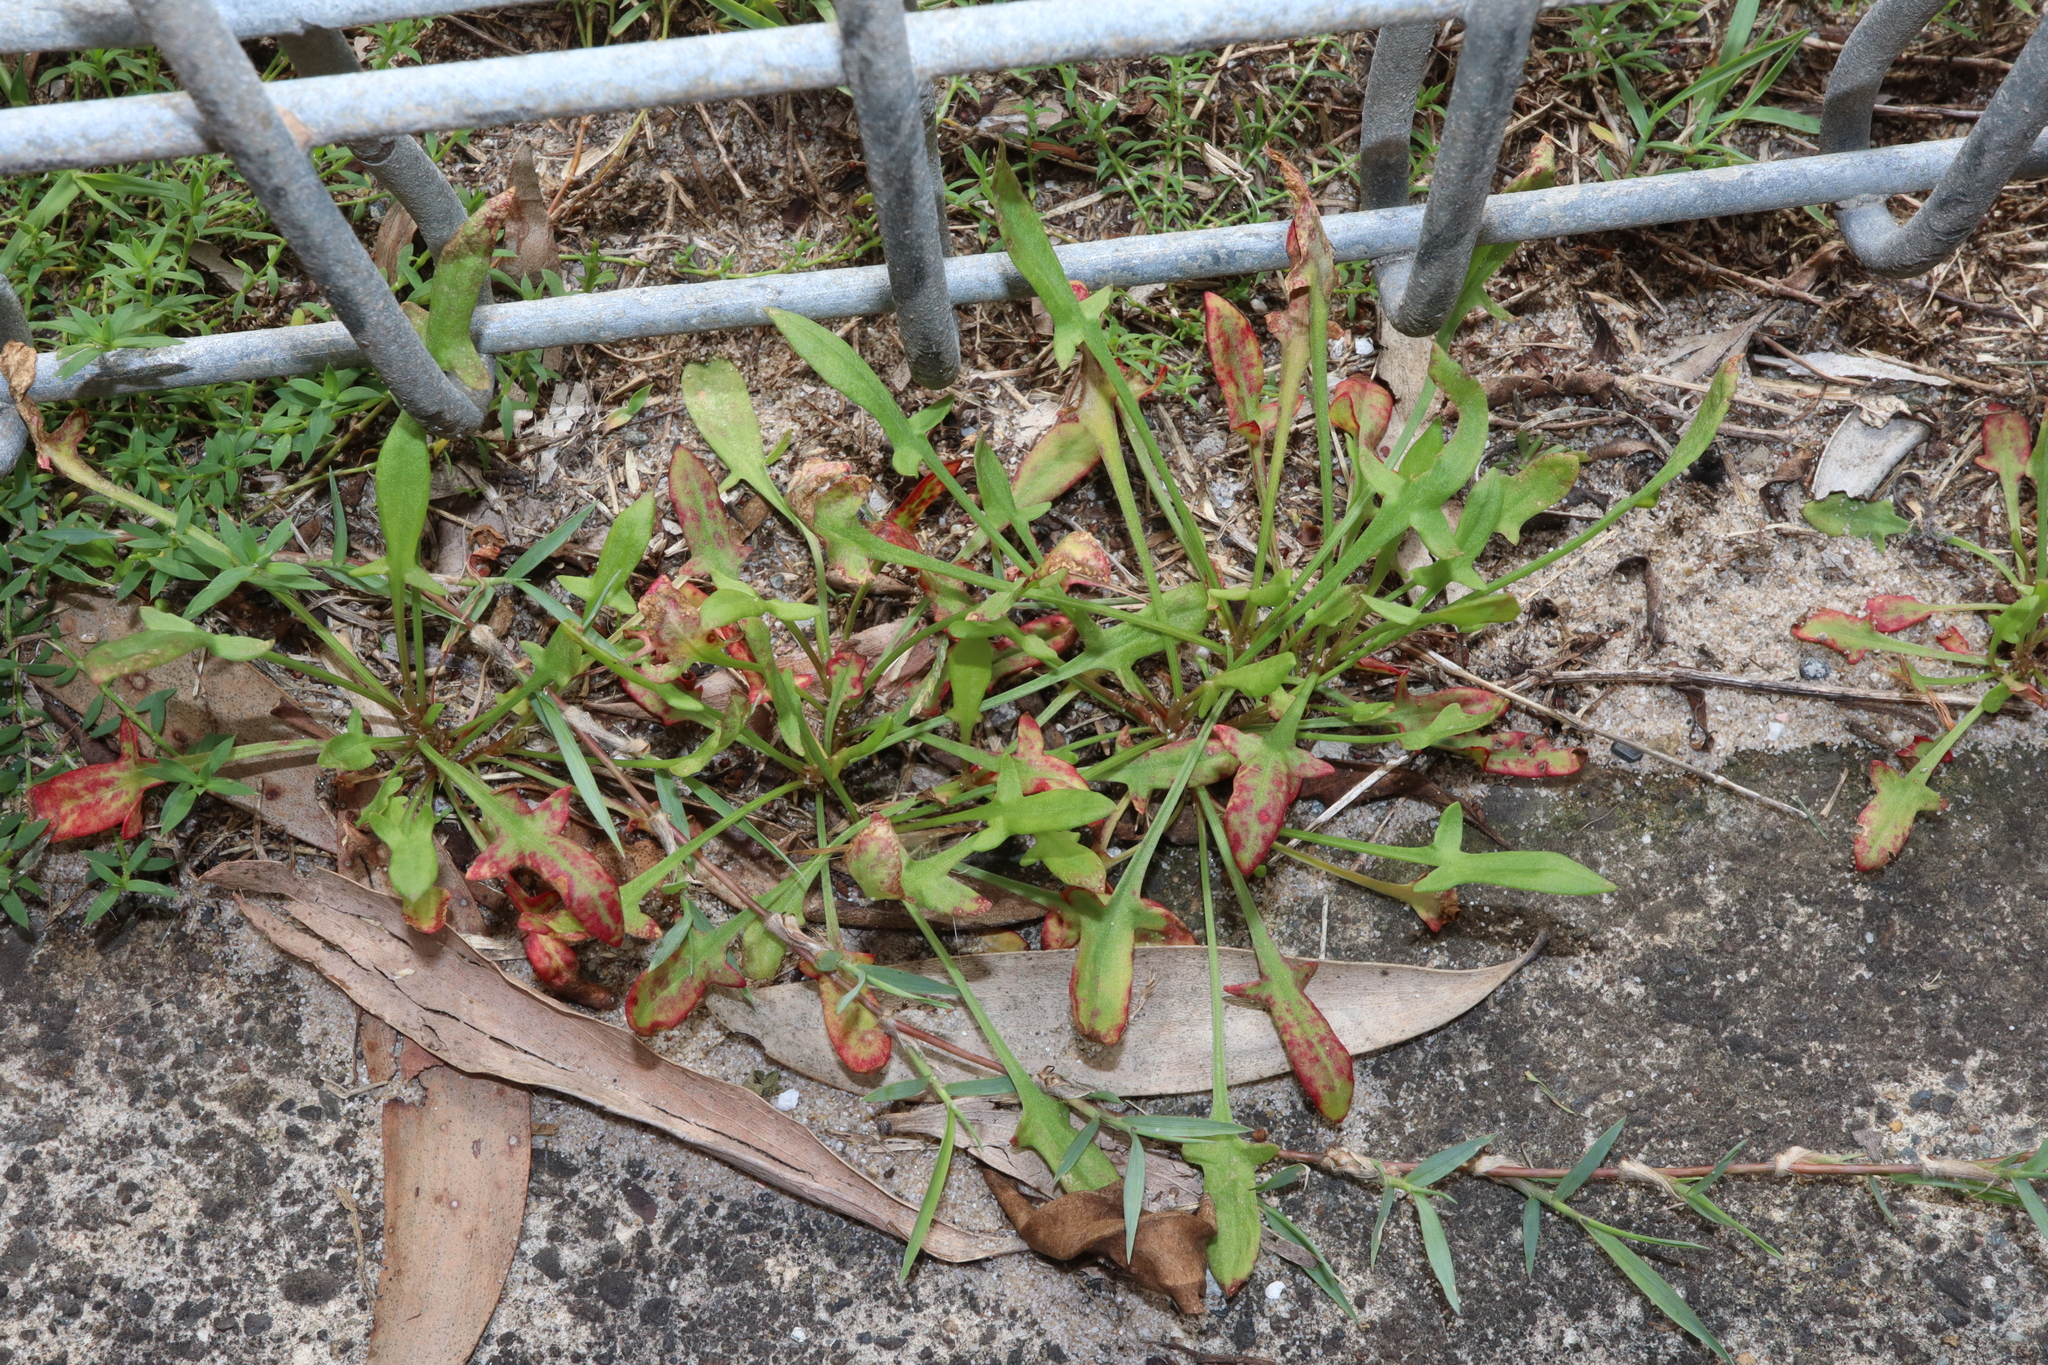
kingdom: Plantae
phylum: Tracheophyta
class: Magnoliopsida
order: Caryophyllales
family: Polygonaceae
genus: Rumex
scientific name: Rumex acetosella
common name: Common sheep sorrel
